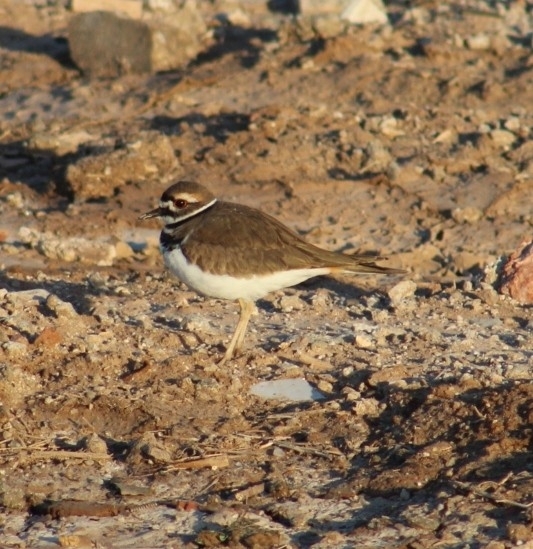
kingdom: Animalia
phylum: Chordata
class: Aves
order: Charadriiformes
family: Charadriidae
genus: Charadrius
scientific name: Charadrius vociferus
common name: Killdeer
